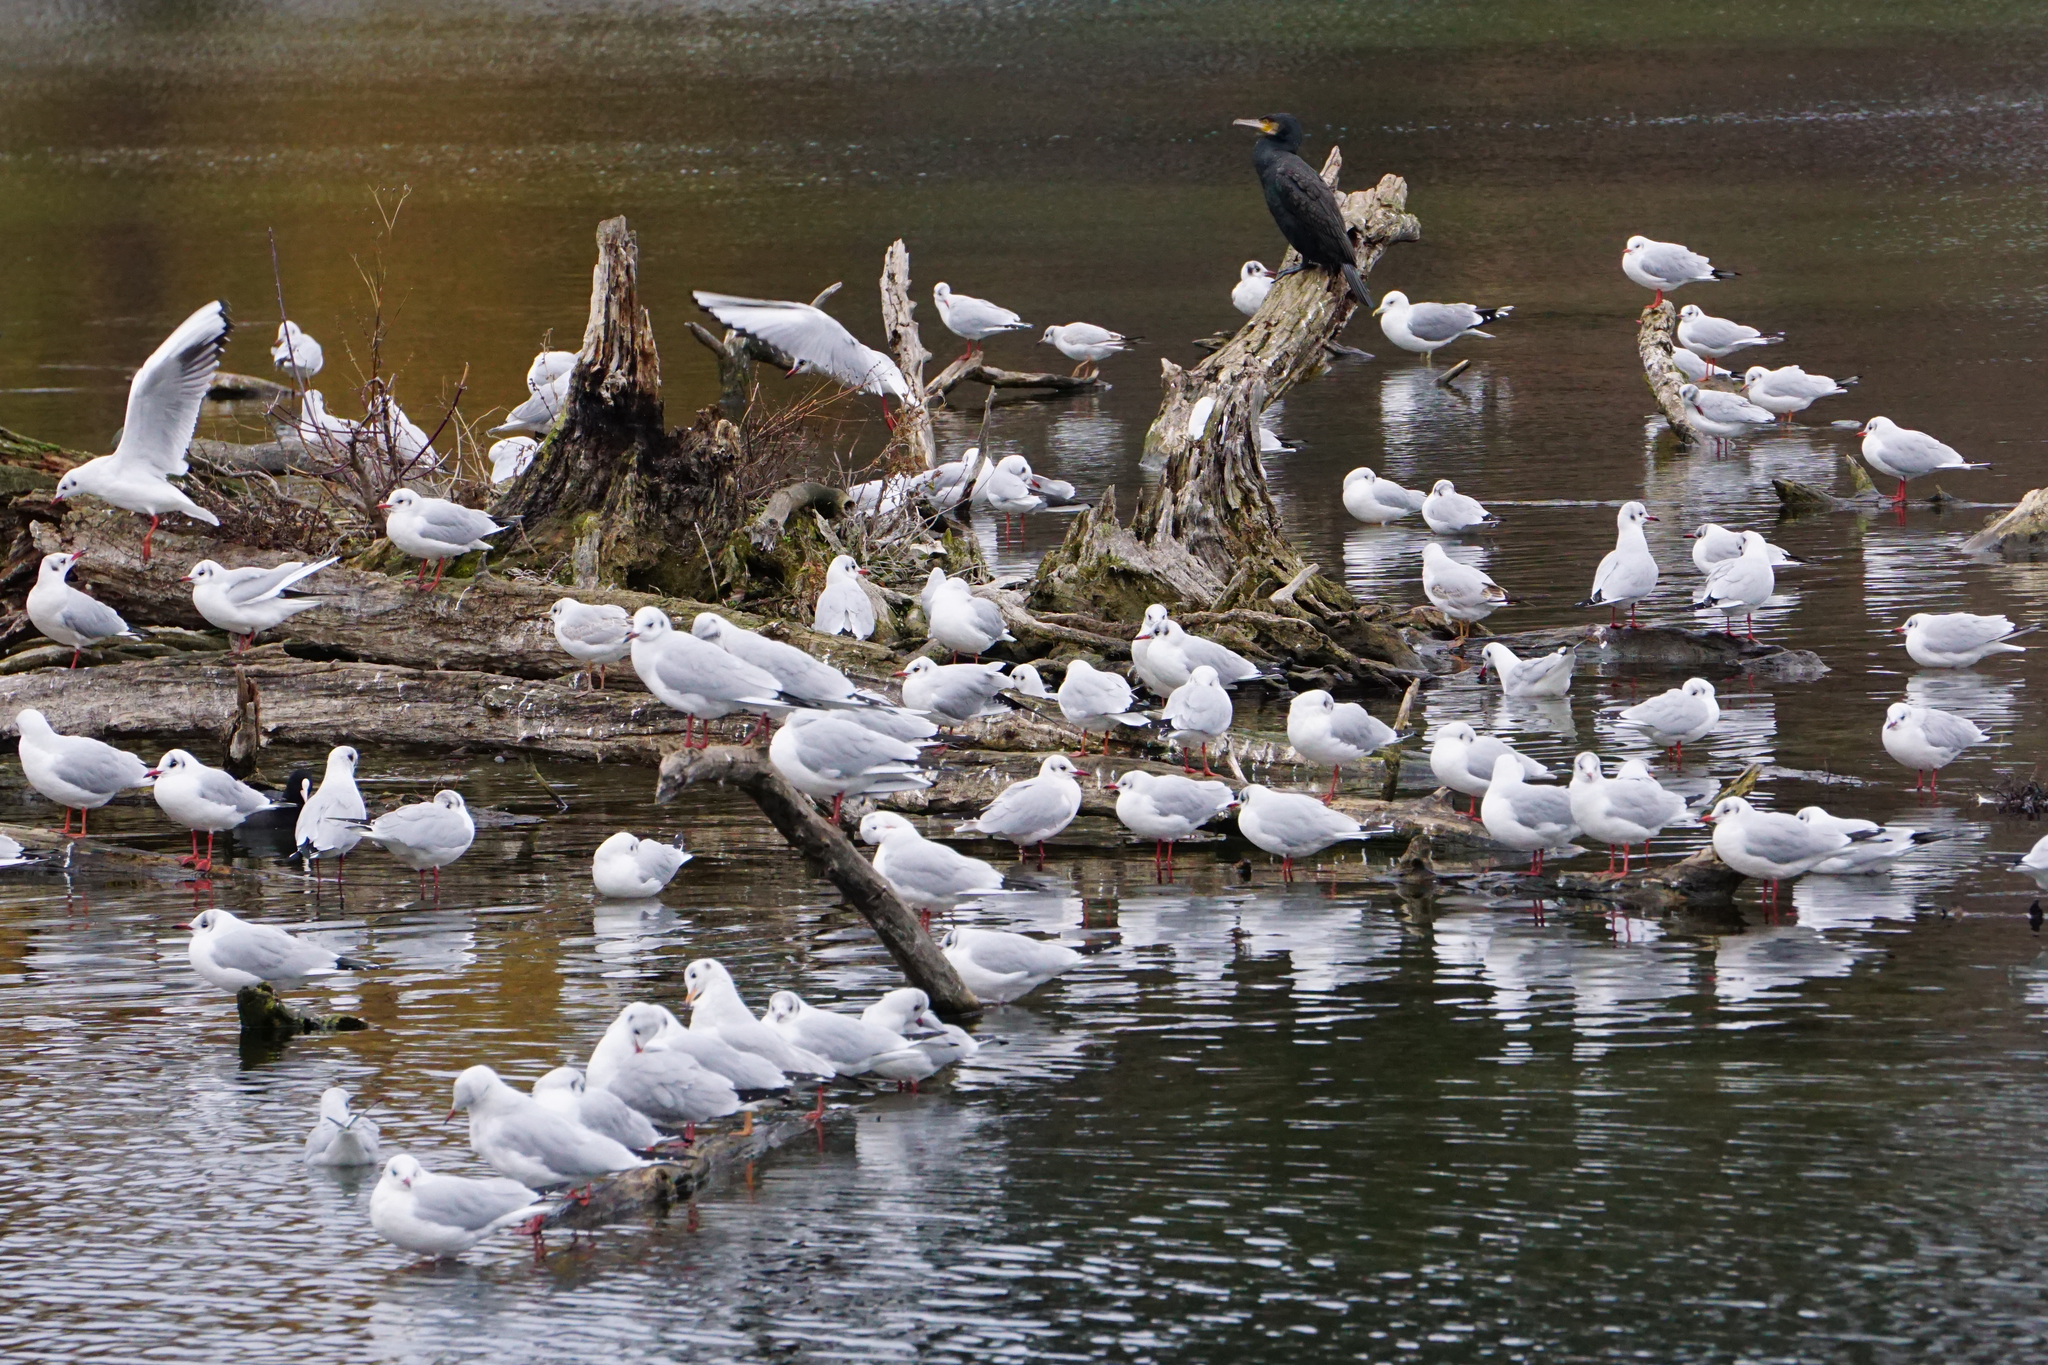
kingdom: Animalia
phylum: Chordata
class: Aves
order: Charadriiformes
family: Laridae
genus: Chroicocephalus
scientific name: Chroicocephalus ridibundus
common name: Black-headed gull
